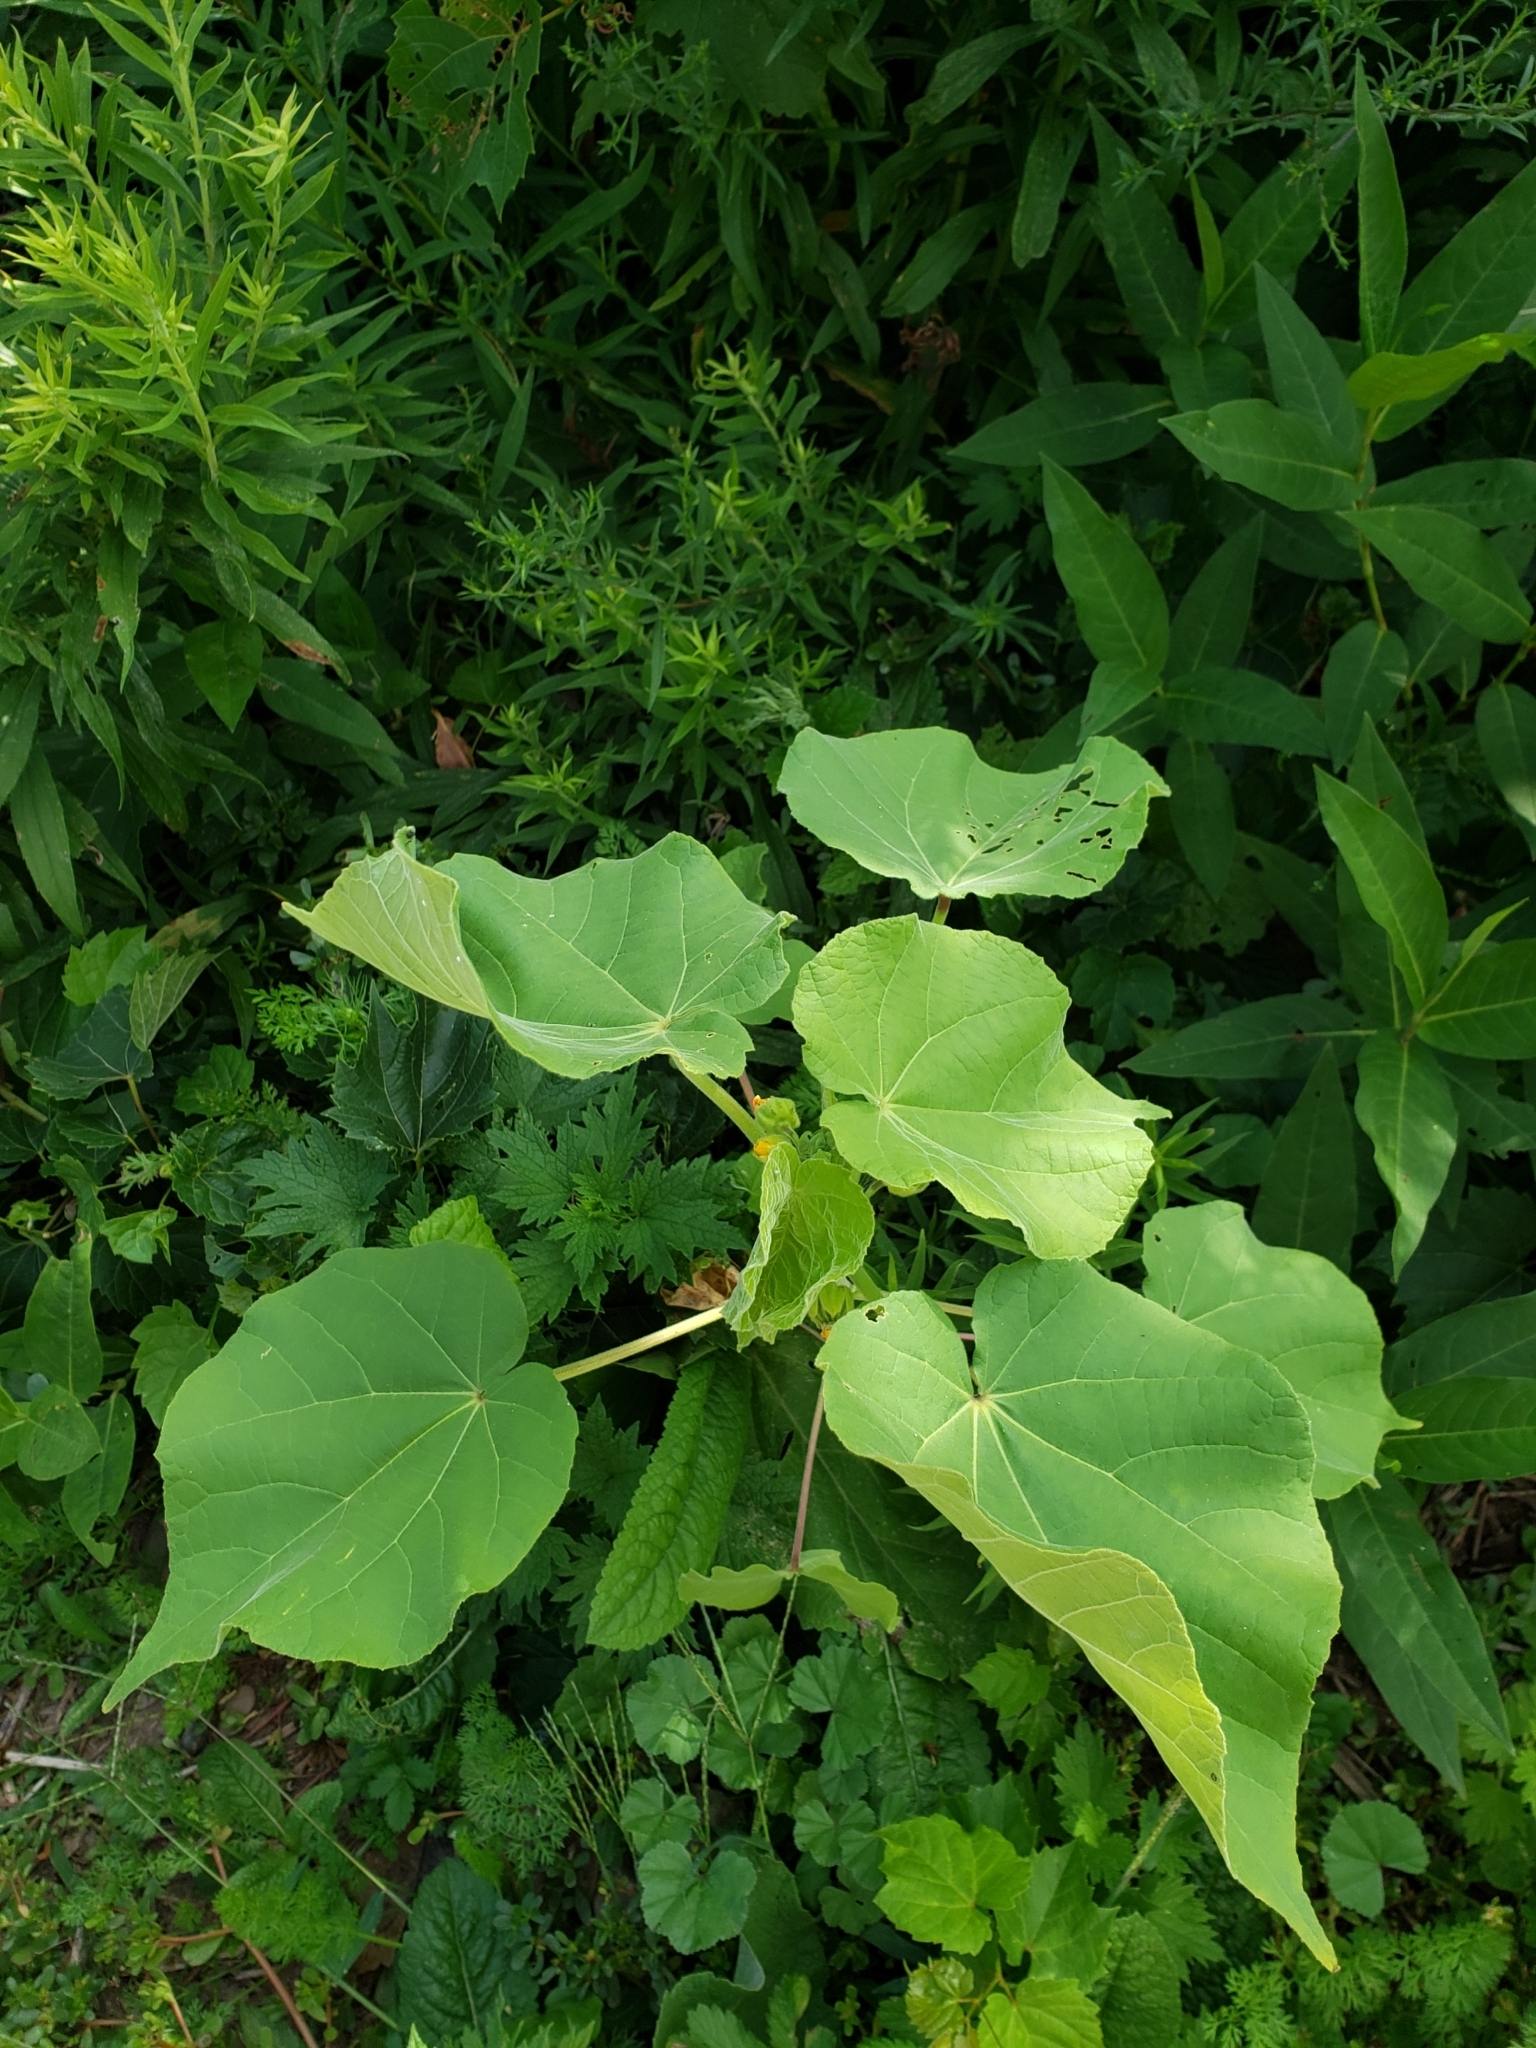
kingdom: Plantae
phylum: Tracheophyta
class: Magnoliopsida
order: Malvales
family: Malvaceae
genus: Abutilon
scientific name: Abutilon theophrasti
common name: Velvetleaf
